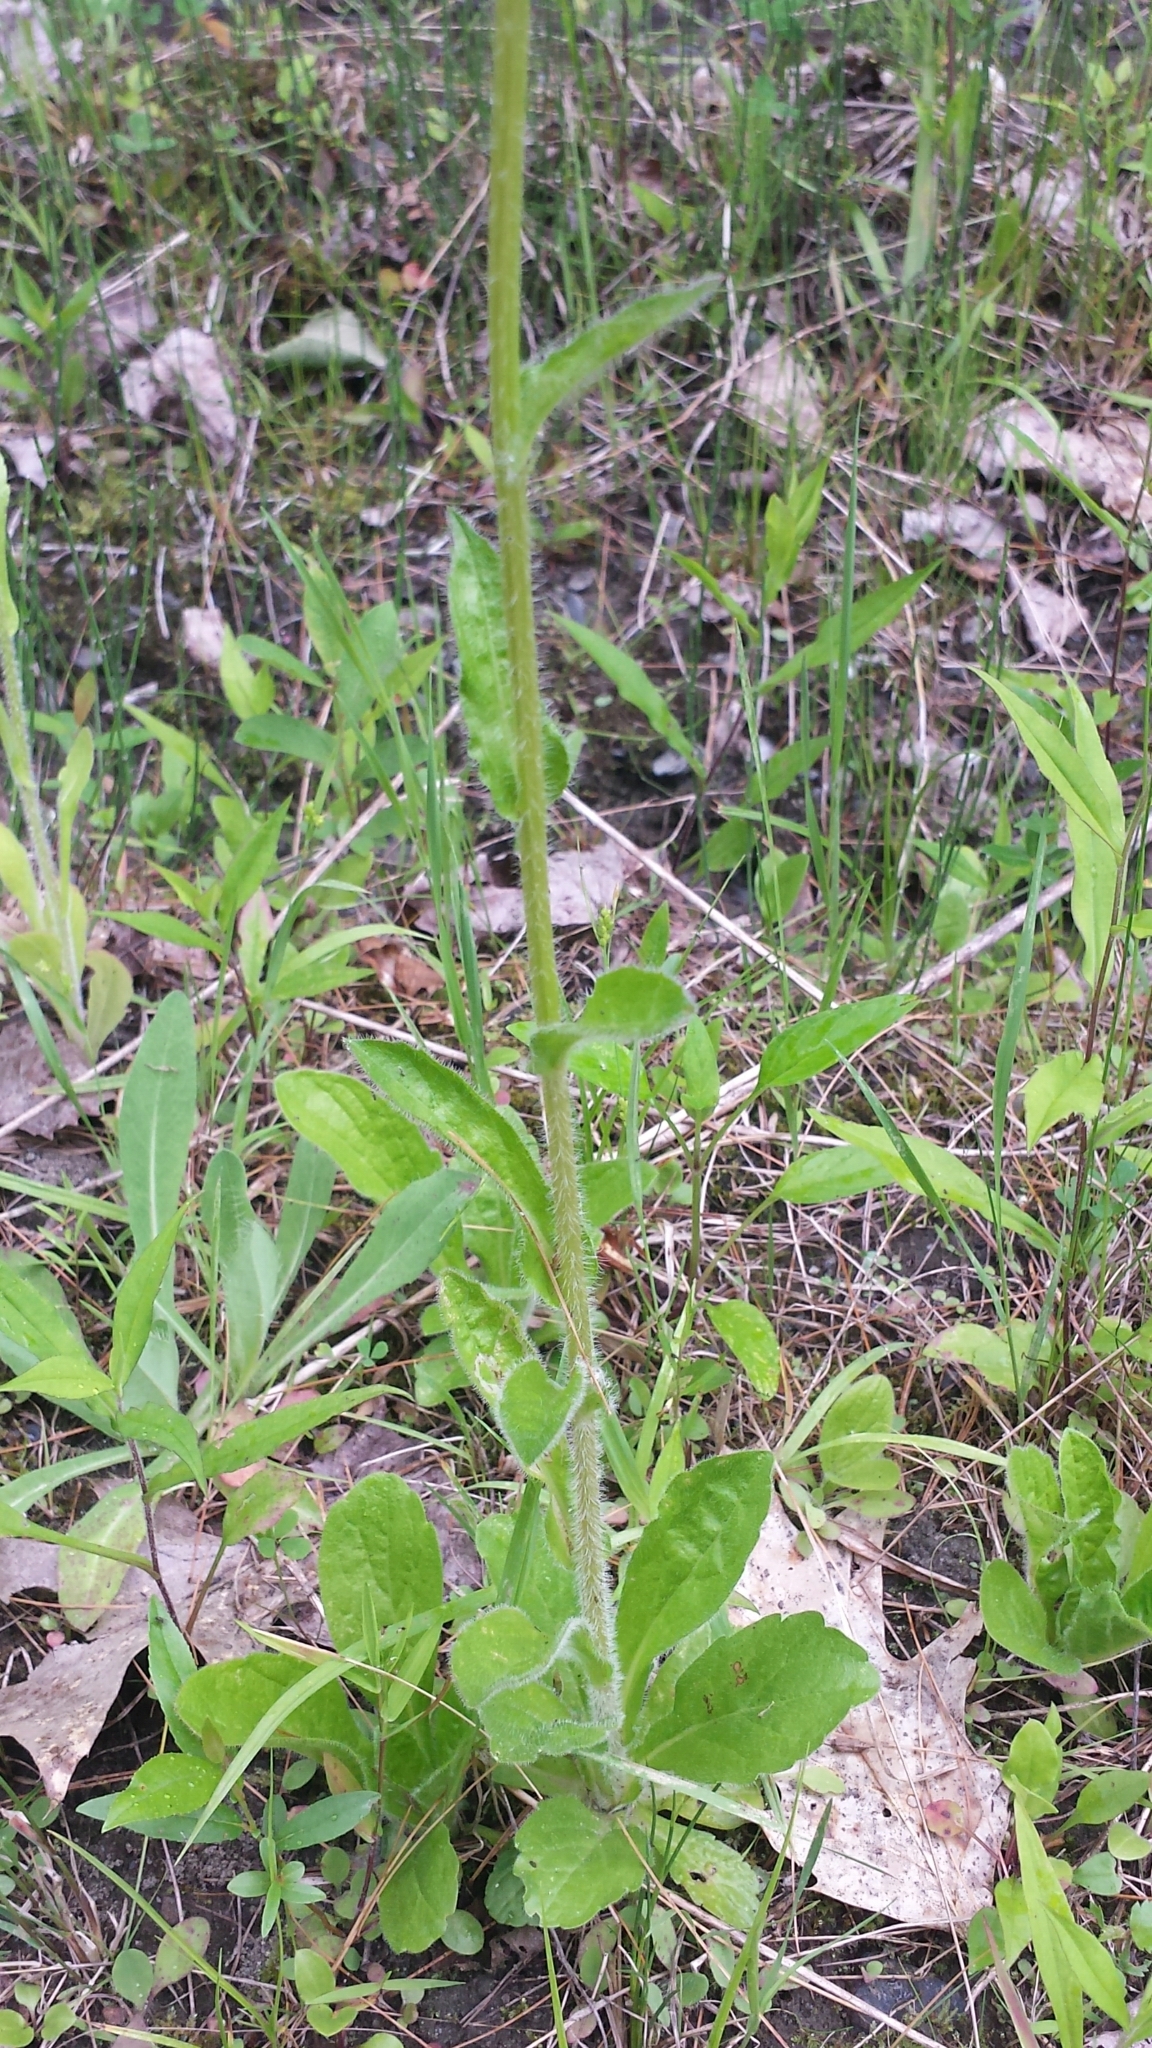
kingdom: Plantae
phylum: Tracheophyta
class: Magnoliopsida
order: Asterales
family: Asteraceae
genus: Erigeron
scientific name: Erigeron pulchellus
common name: Hairy fleabane
